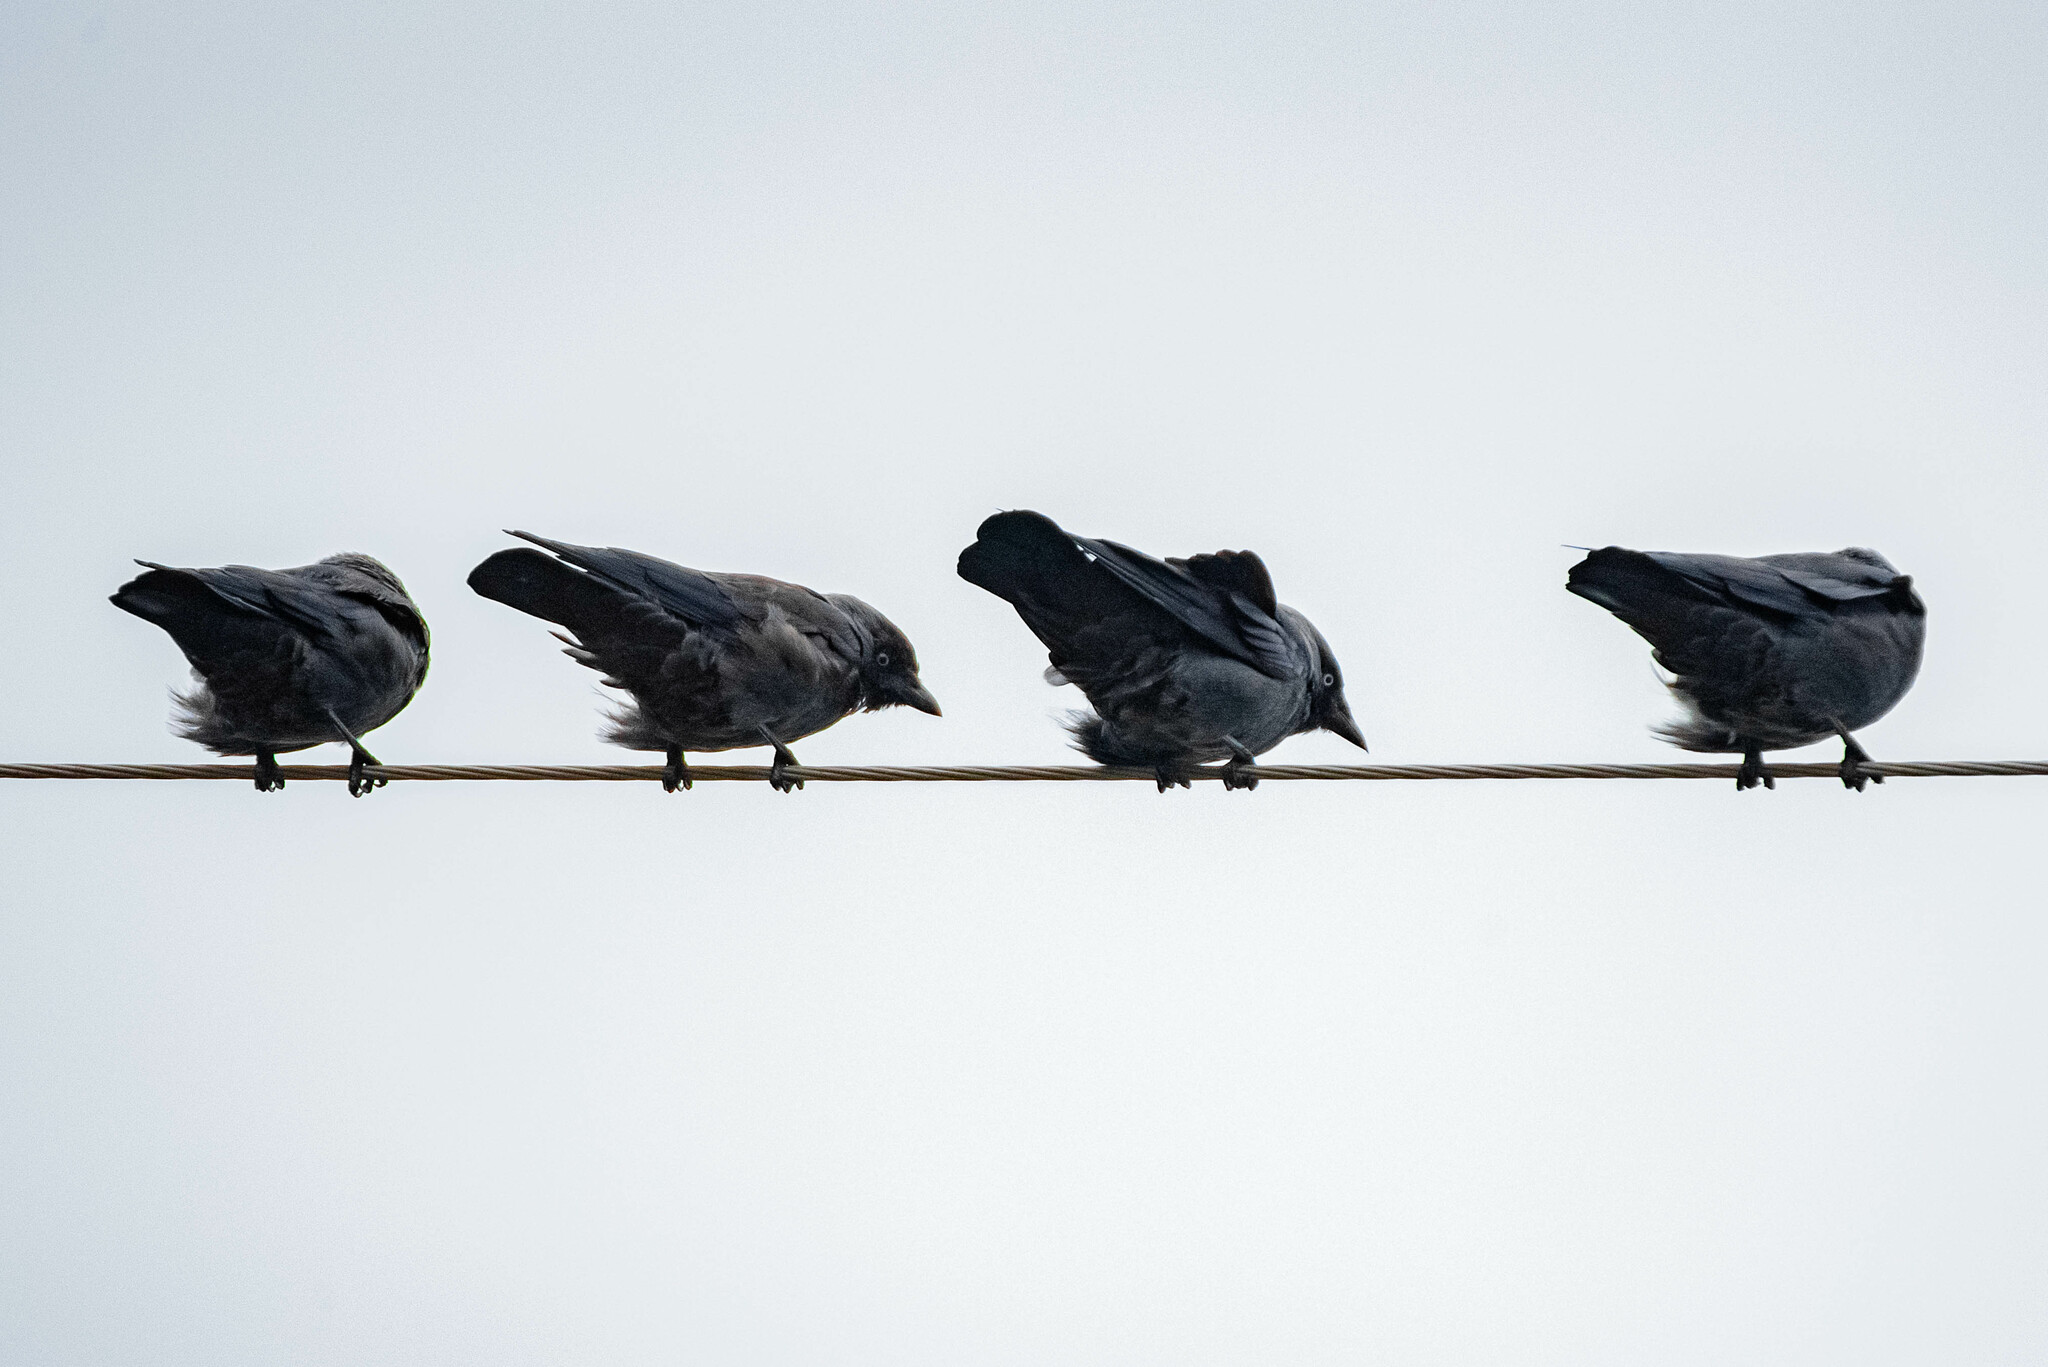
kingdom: Animalia
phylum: Chordata
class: Aves
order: Passeriformes
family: Corvidae
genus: Coloeus
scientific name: Coloeus monedula
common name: Western jackdaw
